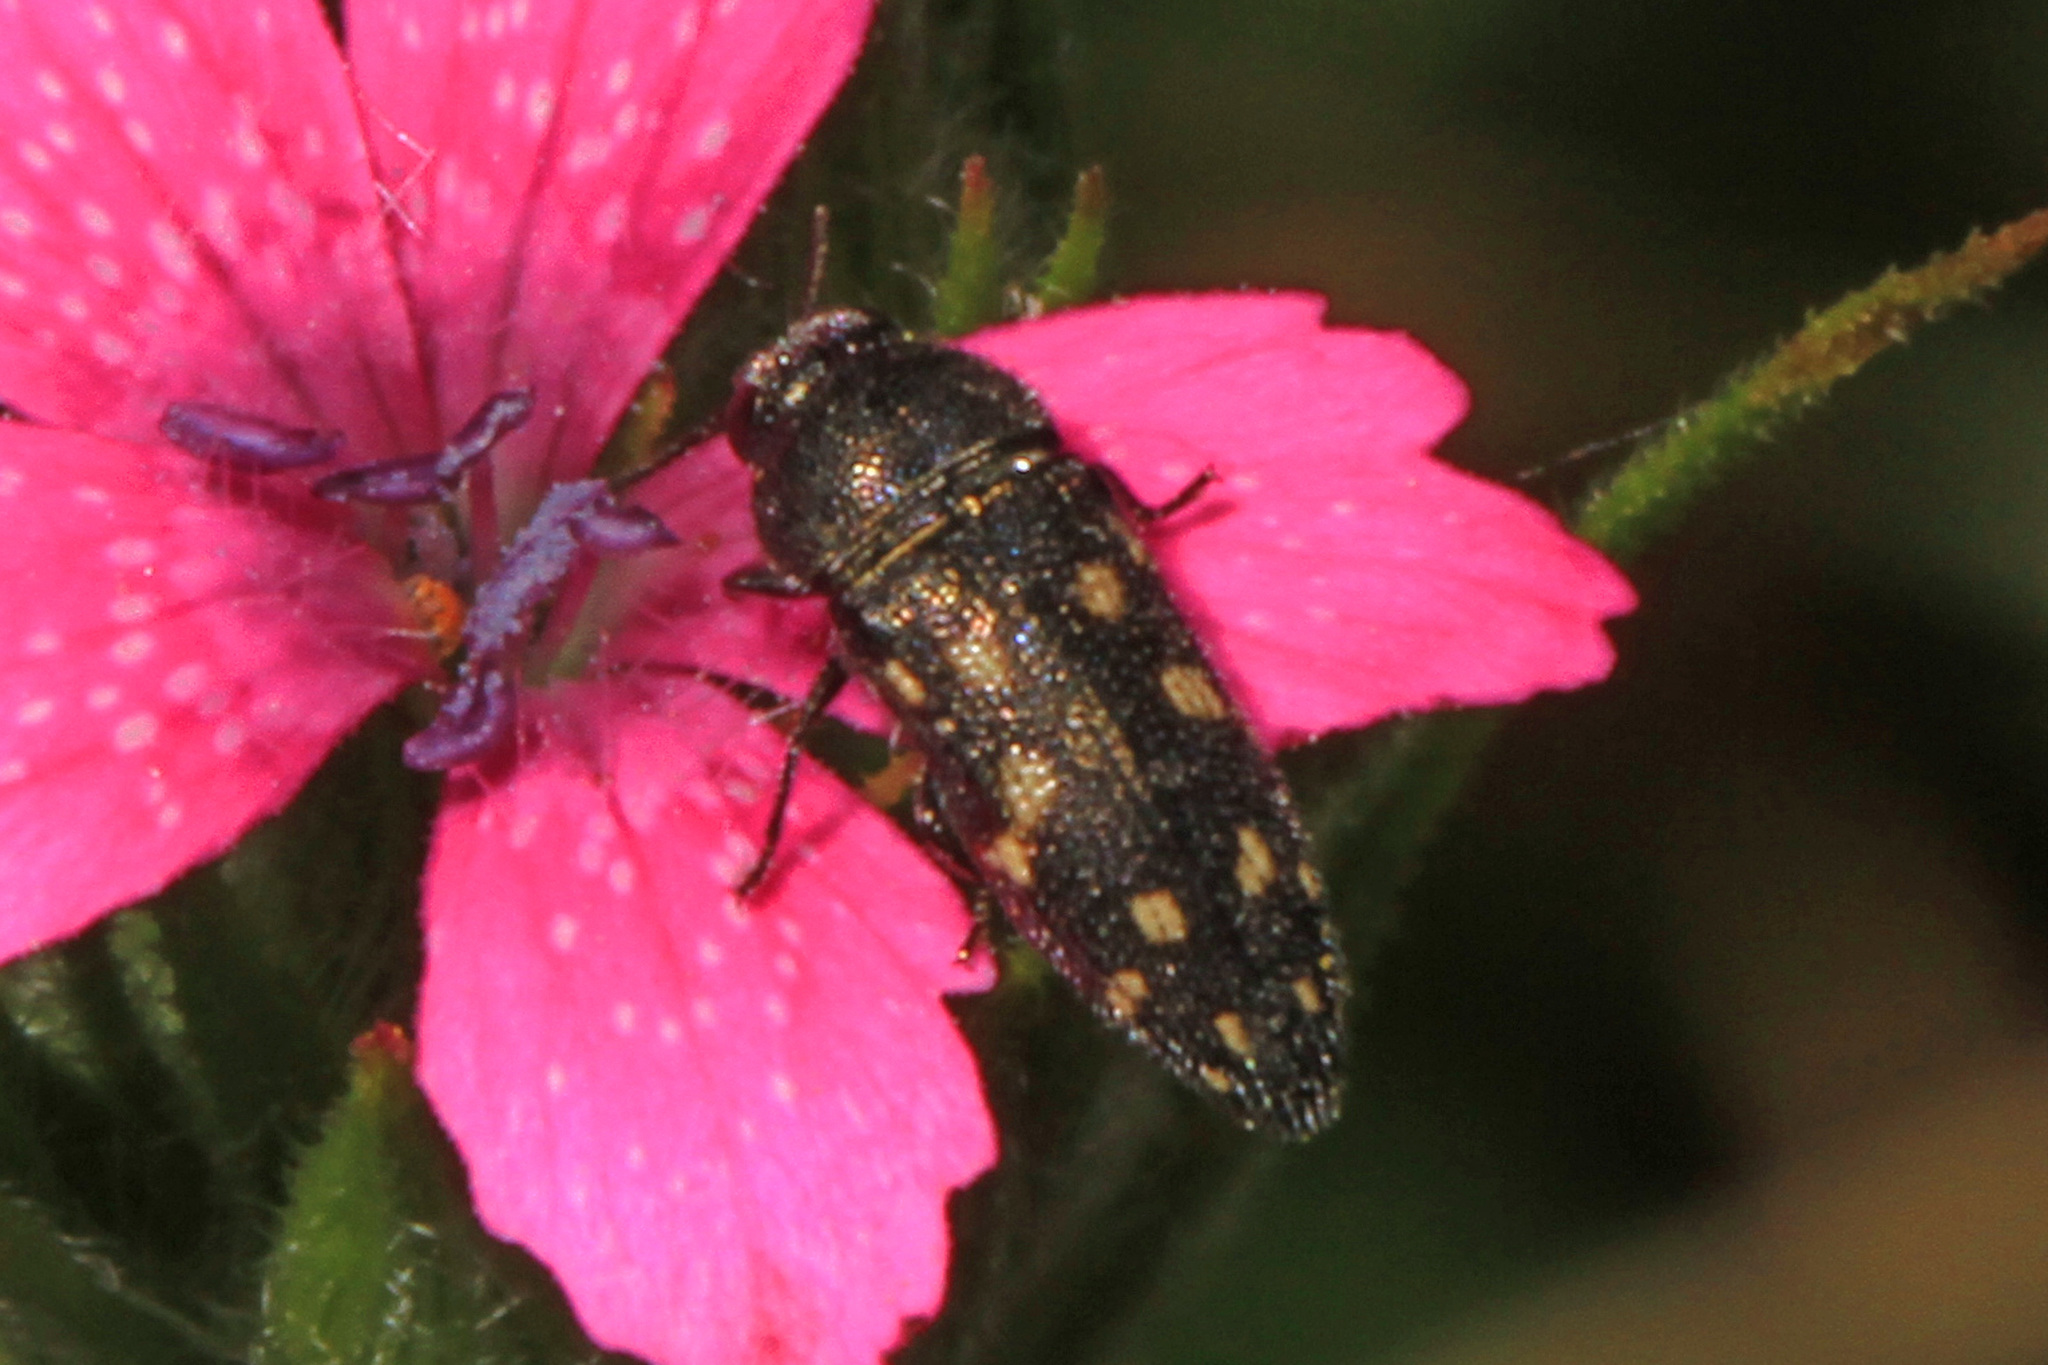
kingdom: Animalia
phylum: Arthropoda
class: Insecta
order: Coleoptera
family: Buprestidae
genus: Acmaeodera
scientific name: Acmaeodera tubulus
